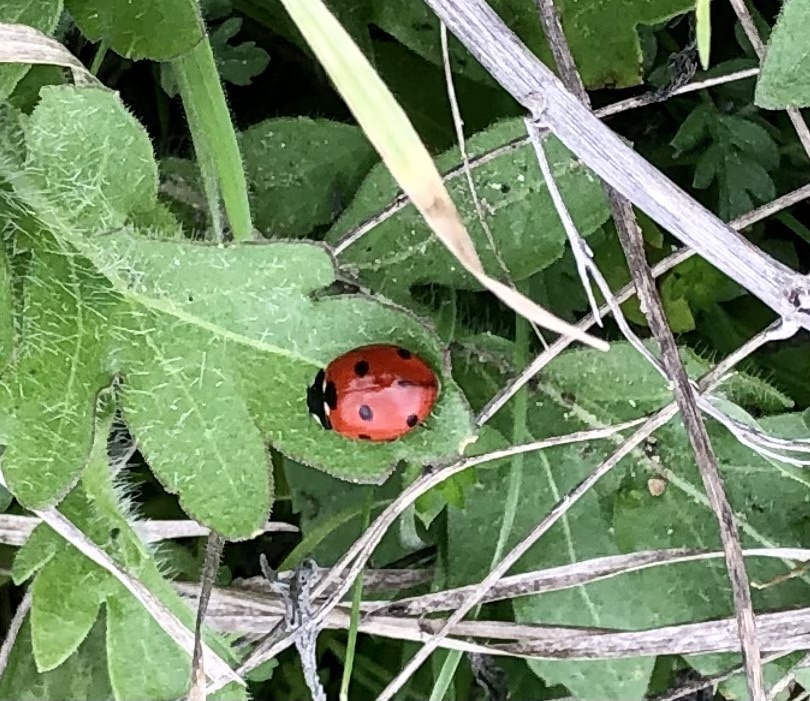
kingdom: Animalia
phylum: Arthropoda
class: Insecta
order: Coleoptera
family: Coccinellidae
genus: Coccinella
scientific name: Coccinella septempunctata
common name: Sevenspotted lady beetle
